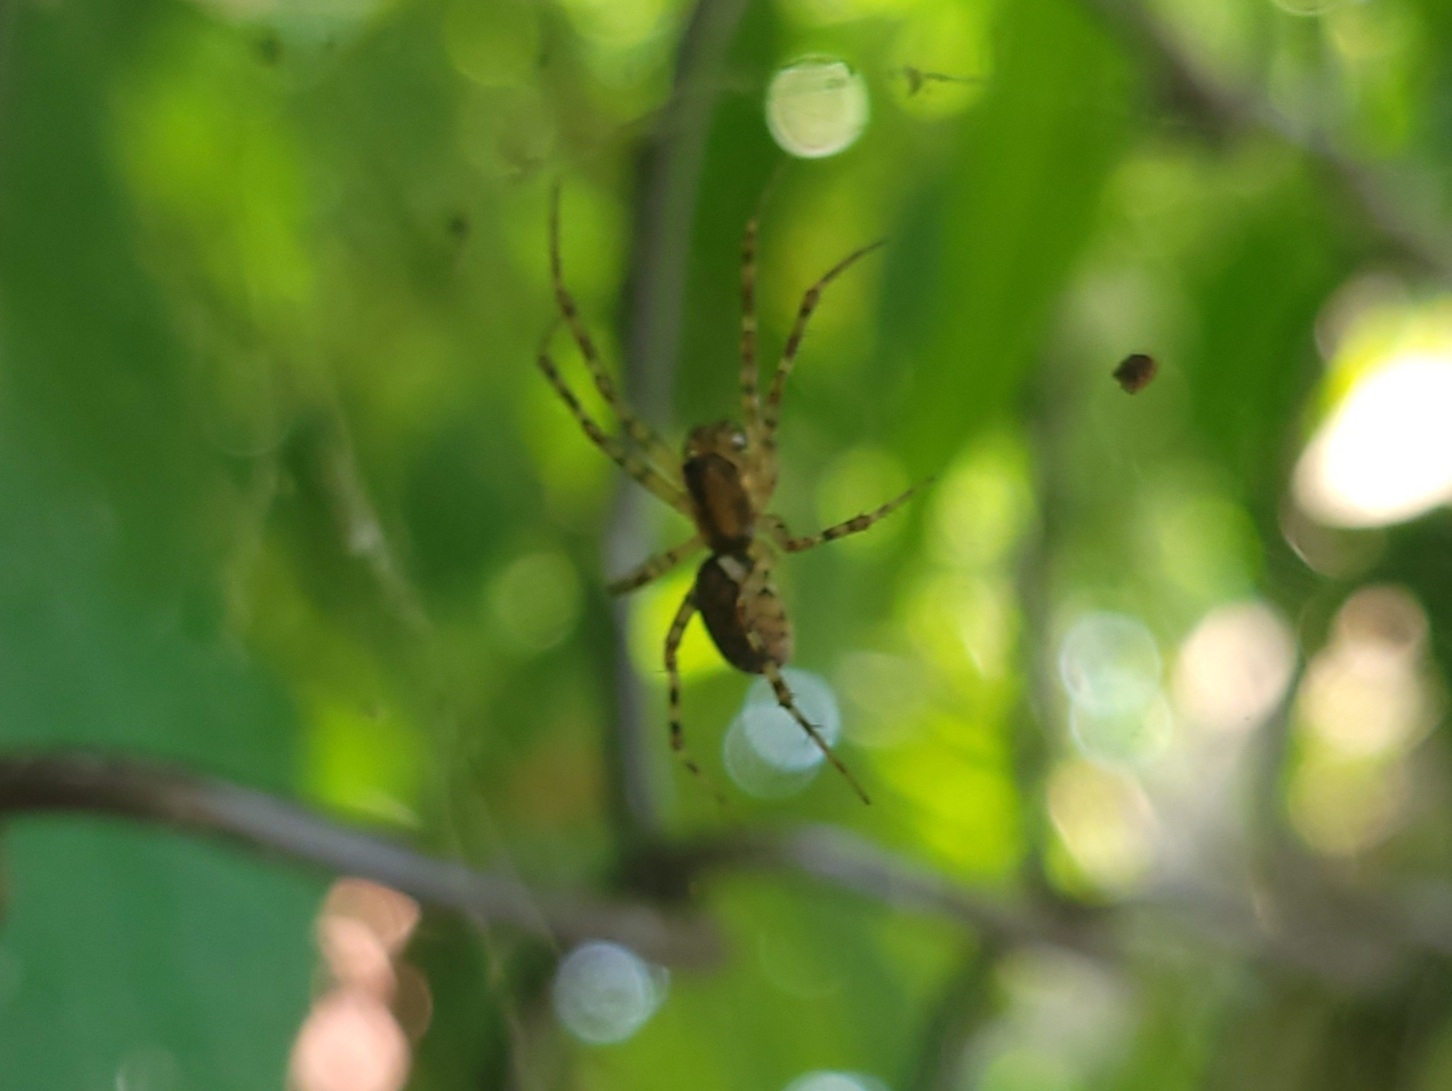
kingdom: Animalia
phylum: Arthropoda
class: Arachnida
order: Araneae
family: Linyphiidae
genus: Neriene
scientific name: Neriene montana
